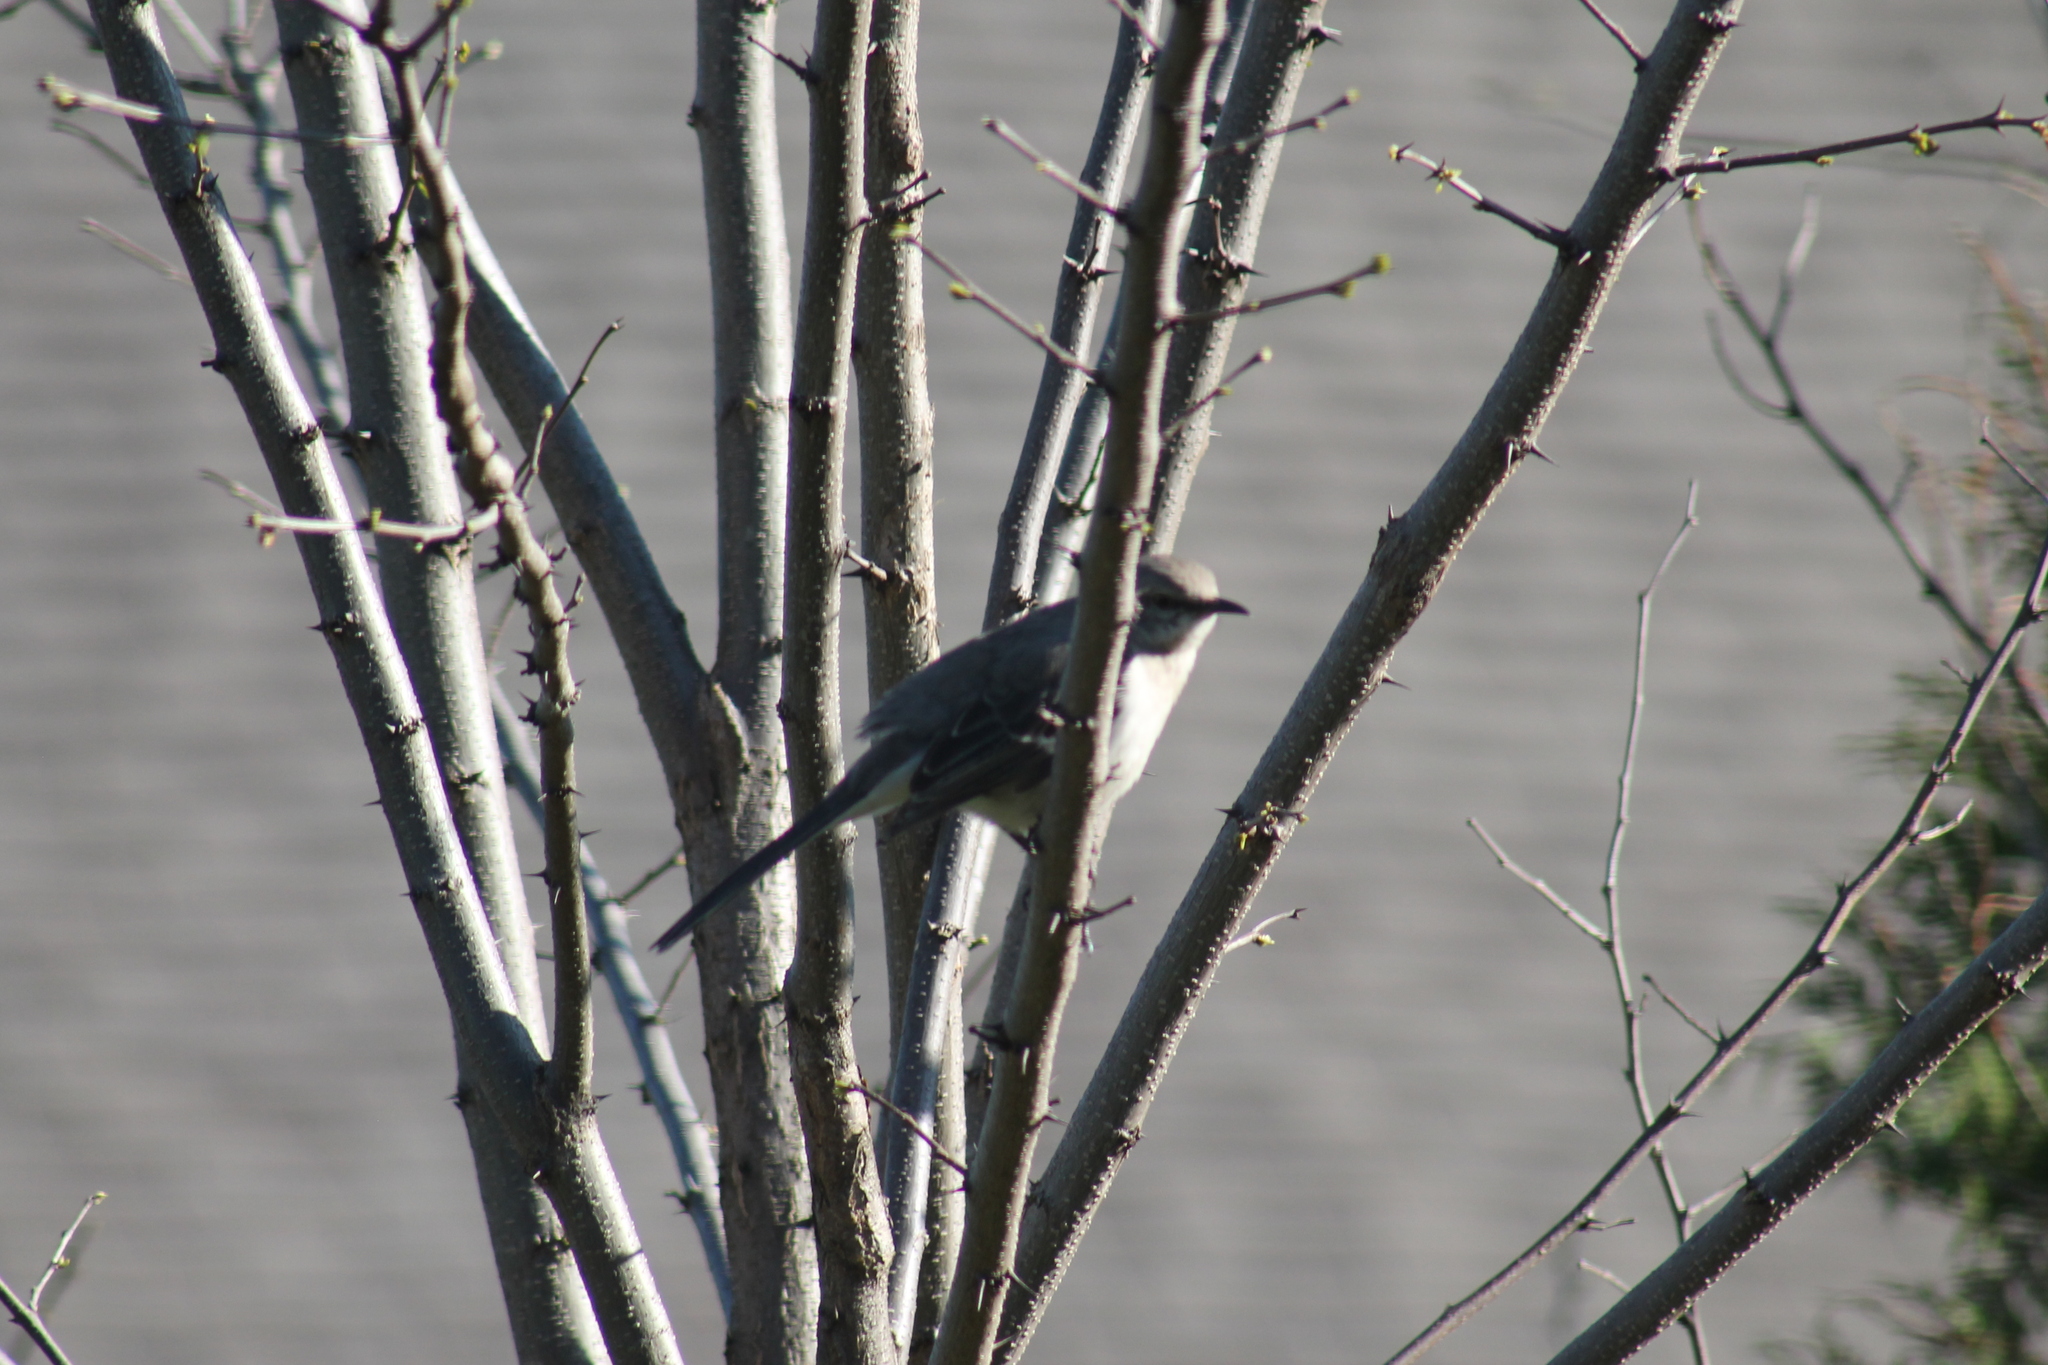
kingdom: Animalia
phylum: Chordata
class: Aves
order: Passeriformes
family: Mimidae
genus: Mimus
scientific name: Mimus polyglottos
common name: Northern mockingbird
